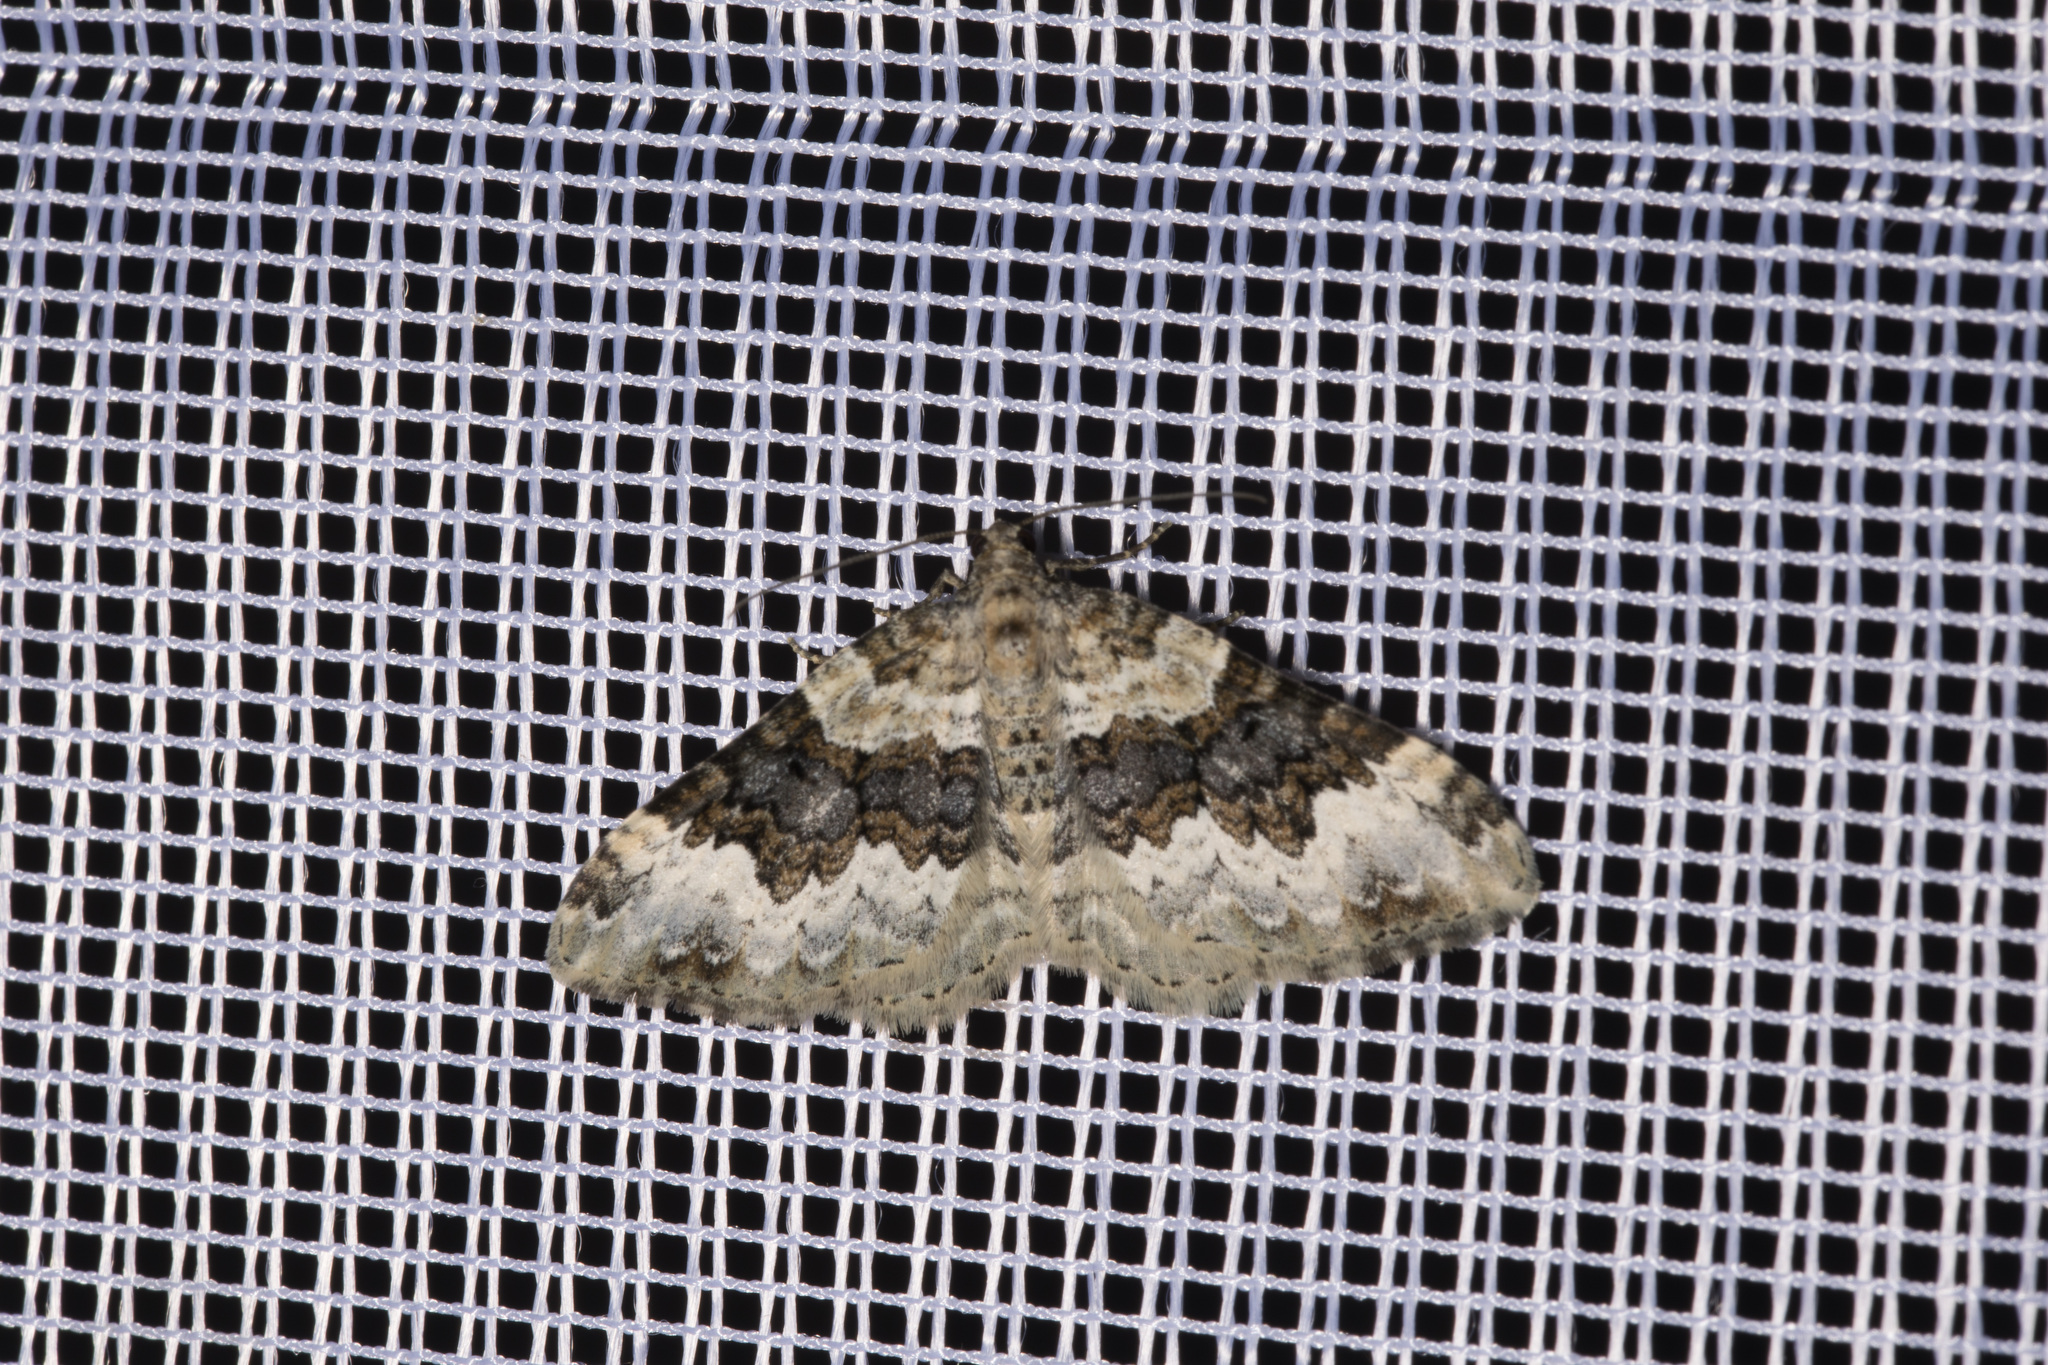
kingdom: Animalia
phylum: Arthropoda
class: Insecta
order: Lepidoptera
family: Geometridae
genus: Epirrhoe
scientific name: Epirrhoe galiata
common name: Galium carpet
